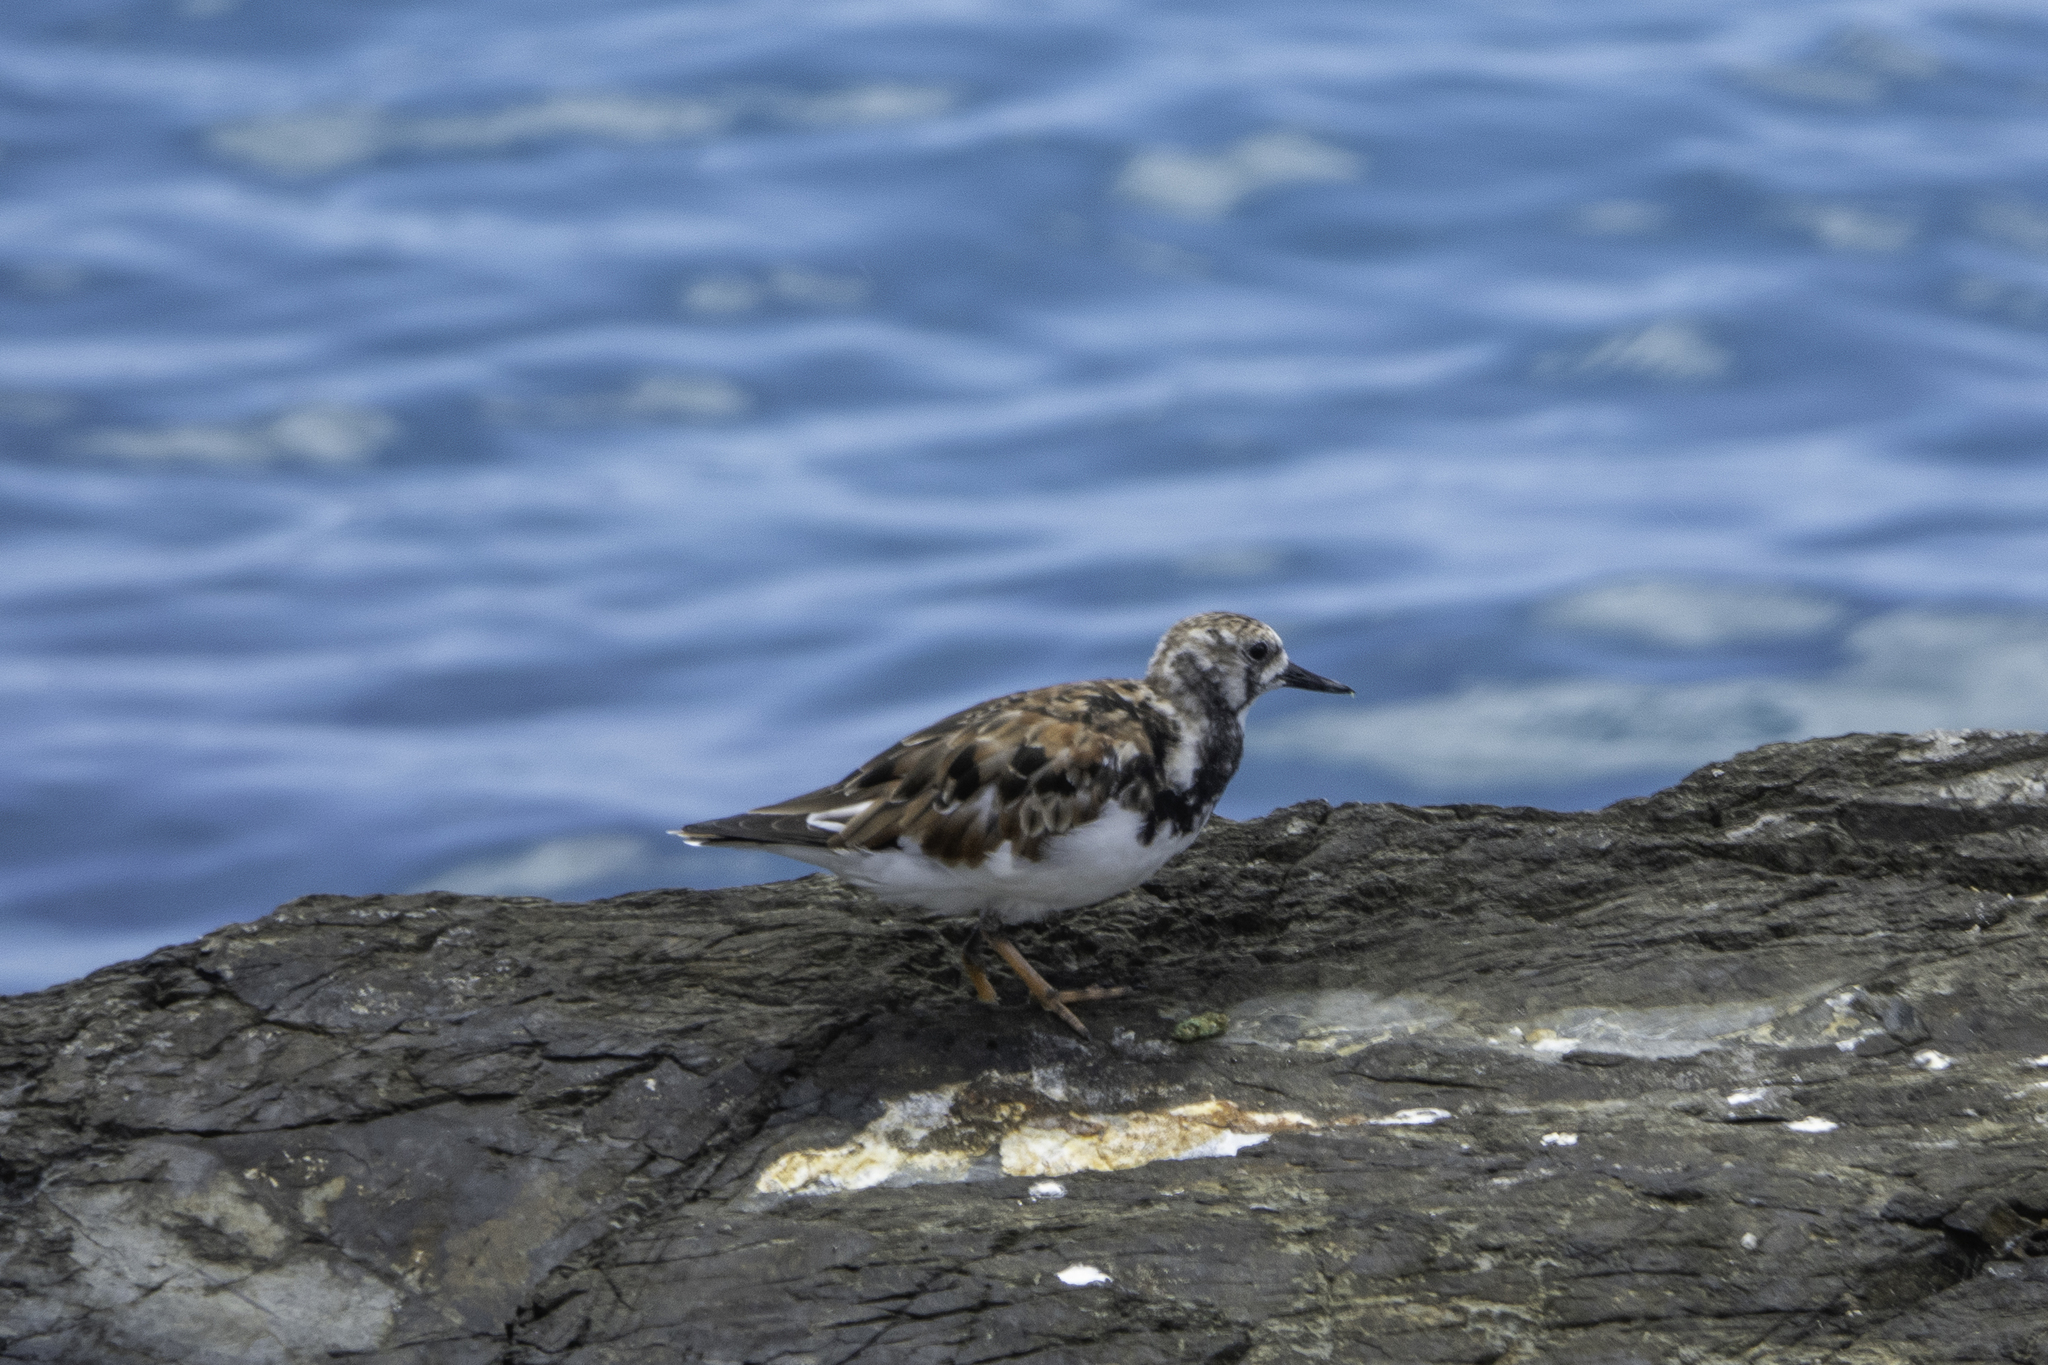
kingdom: Animalia
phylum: Chordata
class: Aves
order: Charadriiformes
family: Scolopacidae
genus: Arenaria
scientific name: Arenaria interpres
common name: Ruddy turnstone
